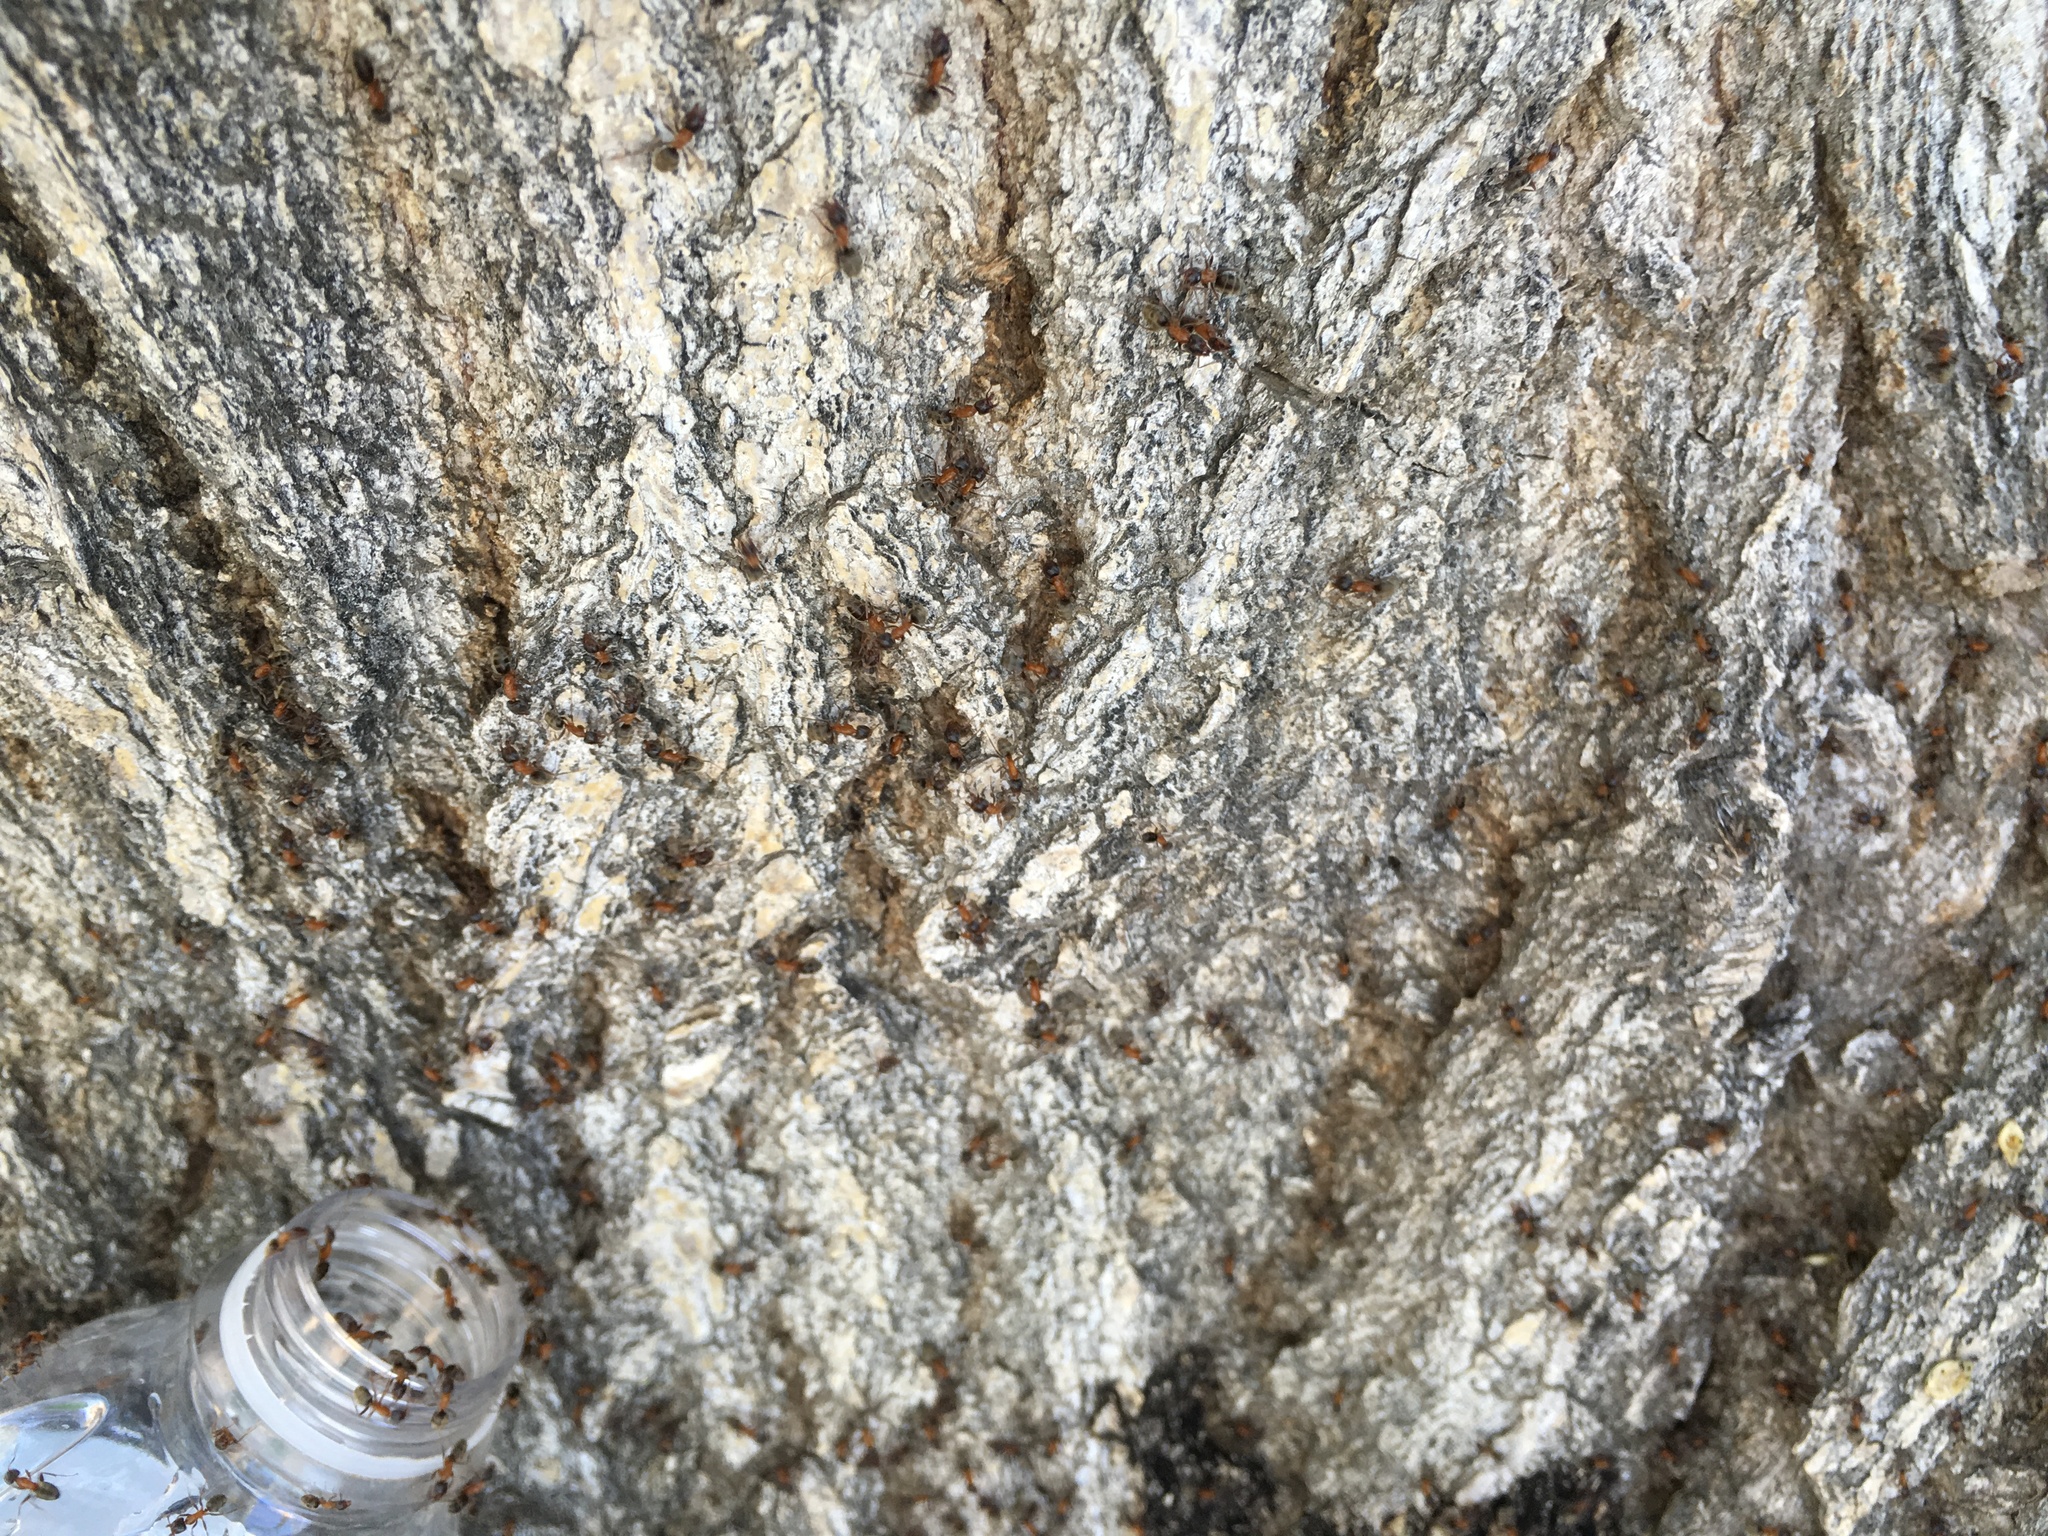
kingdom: Animalia
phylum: Arthropoda
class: Insecta
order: Hymenoptera
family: Formicidae
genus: Liometopum
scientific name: Liometopum occidentale
